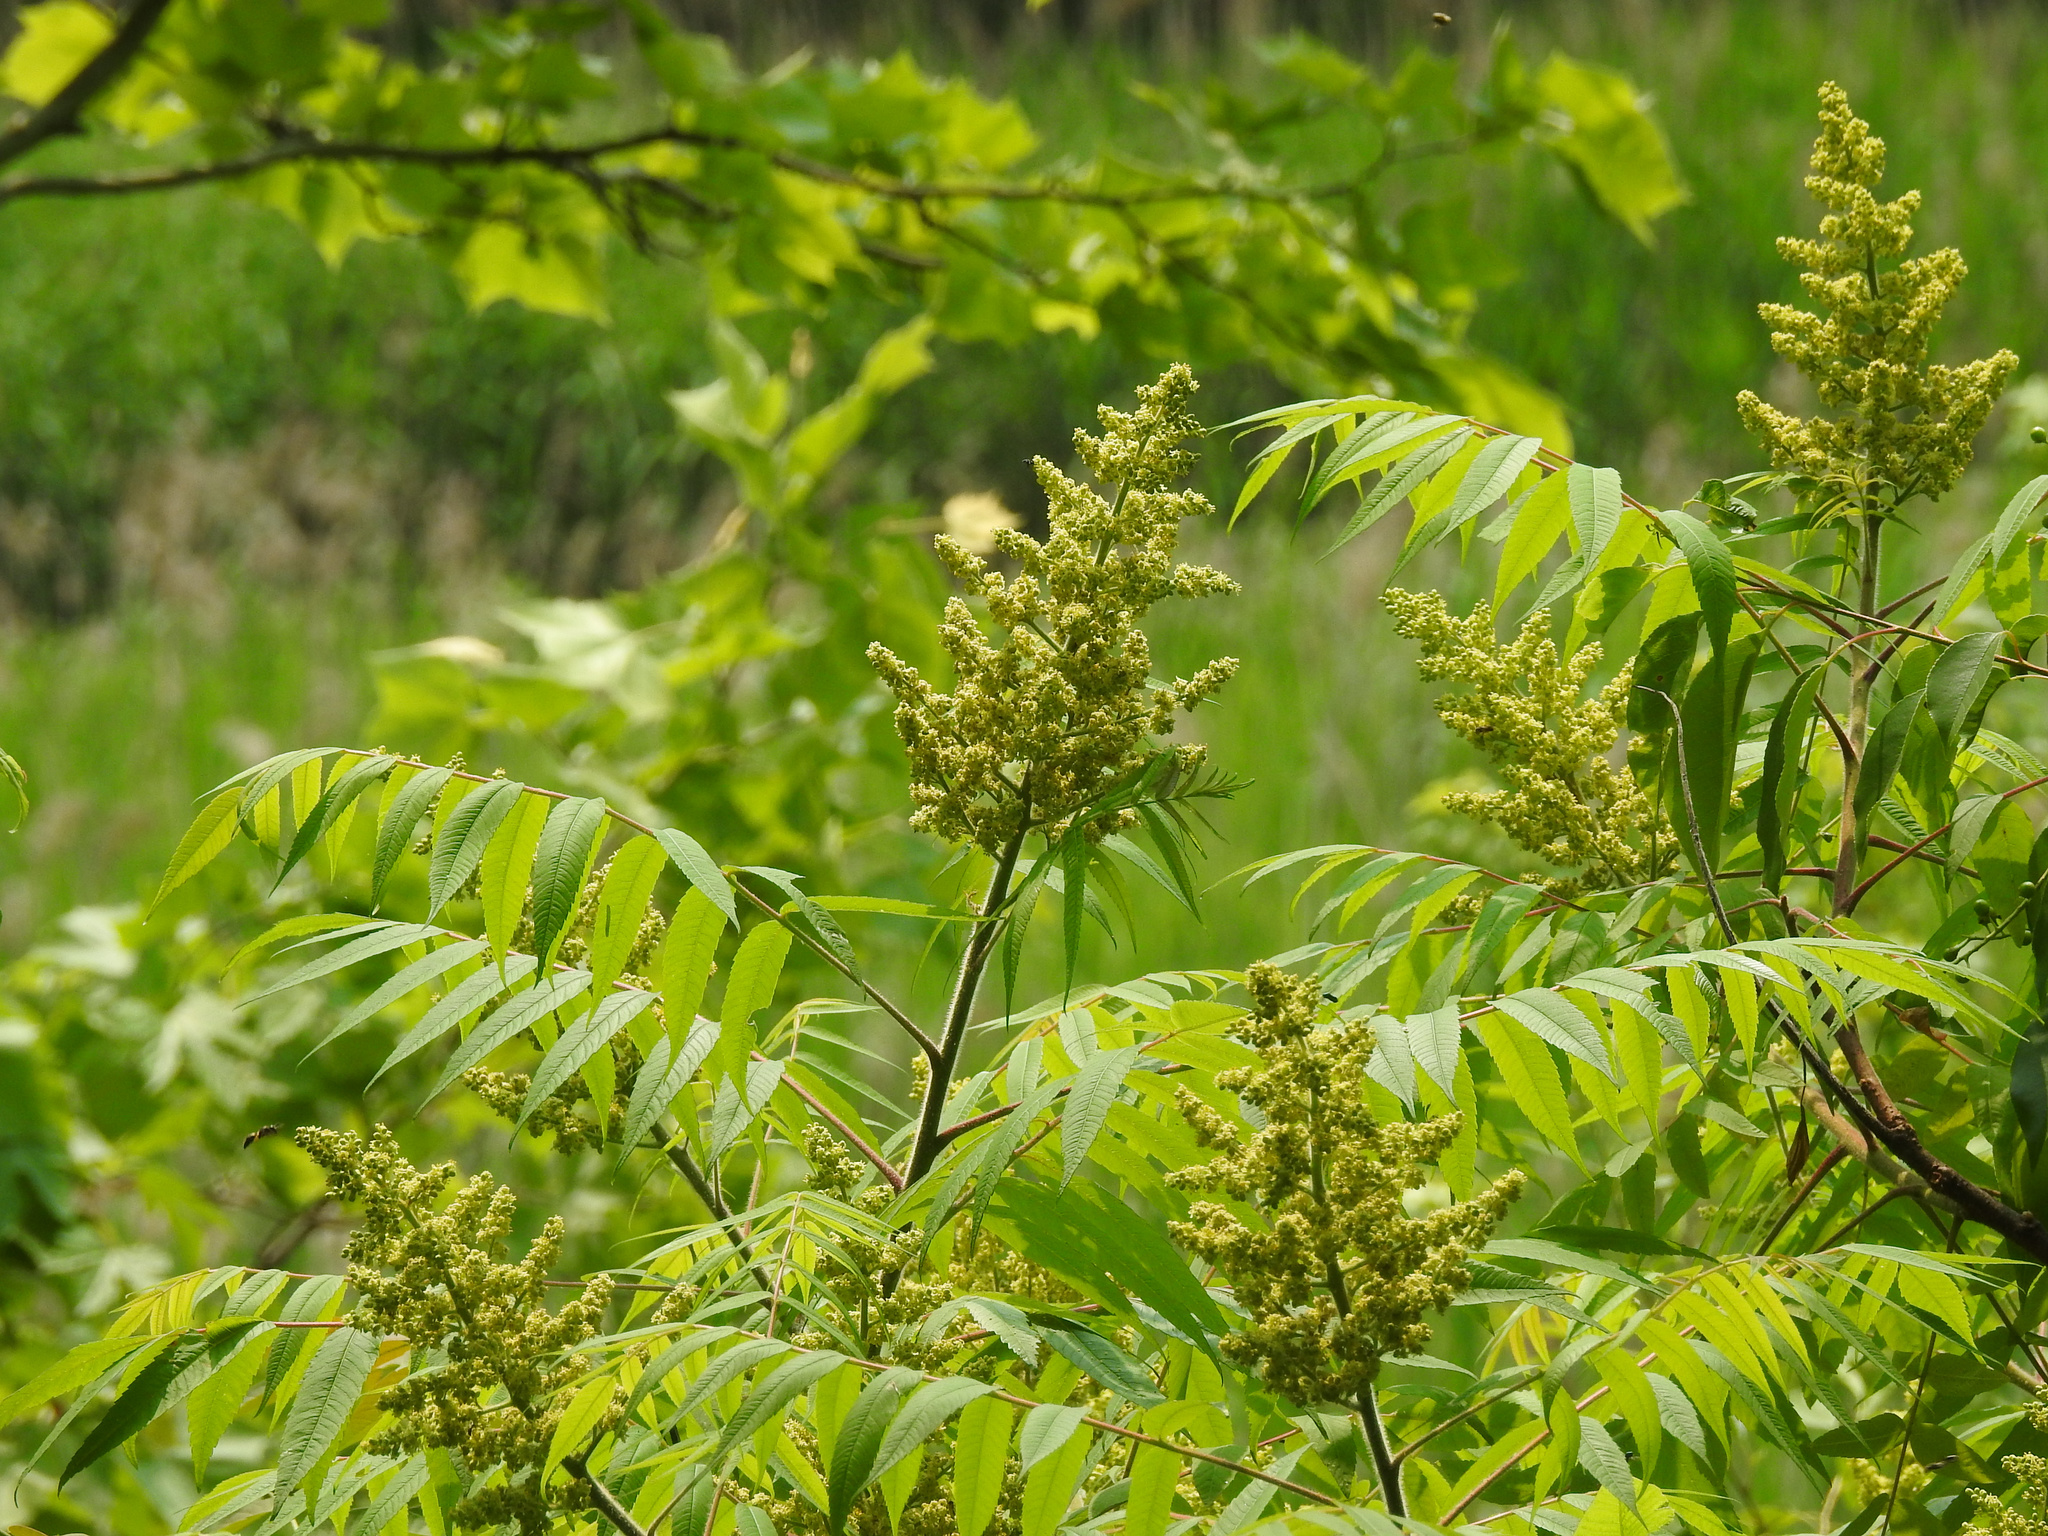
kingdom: Plantae
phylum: Tracheophyta
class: Magnoliopsida
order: Sapindales
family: Anacardiaceae
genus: Rhus
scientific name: Rhus typhina
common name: Staghorn sumac
